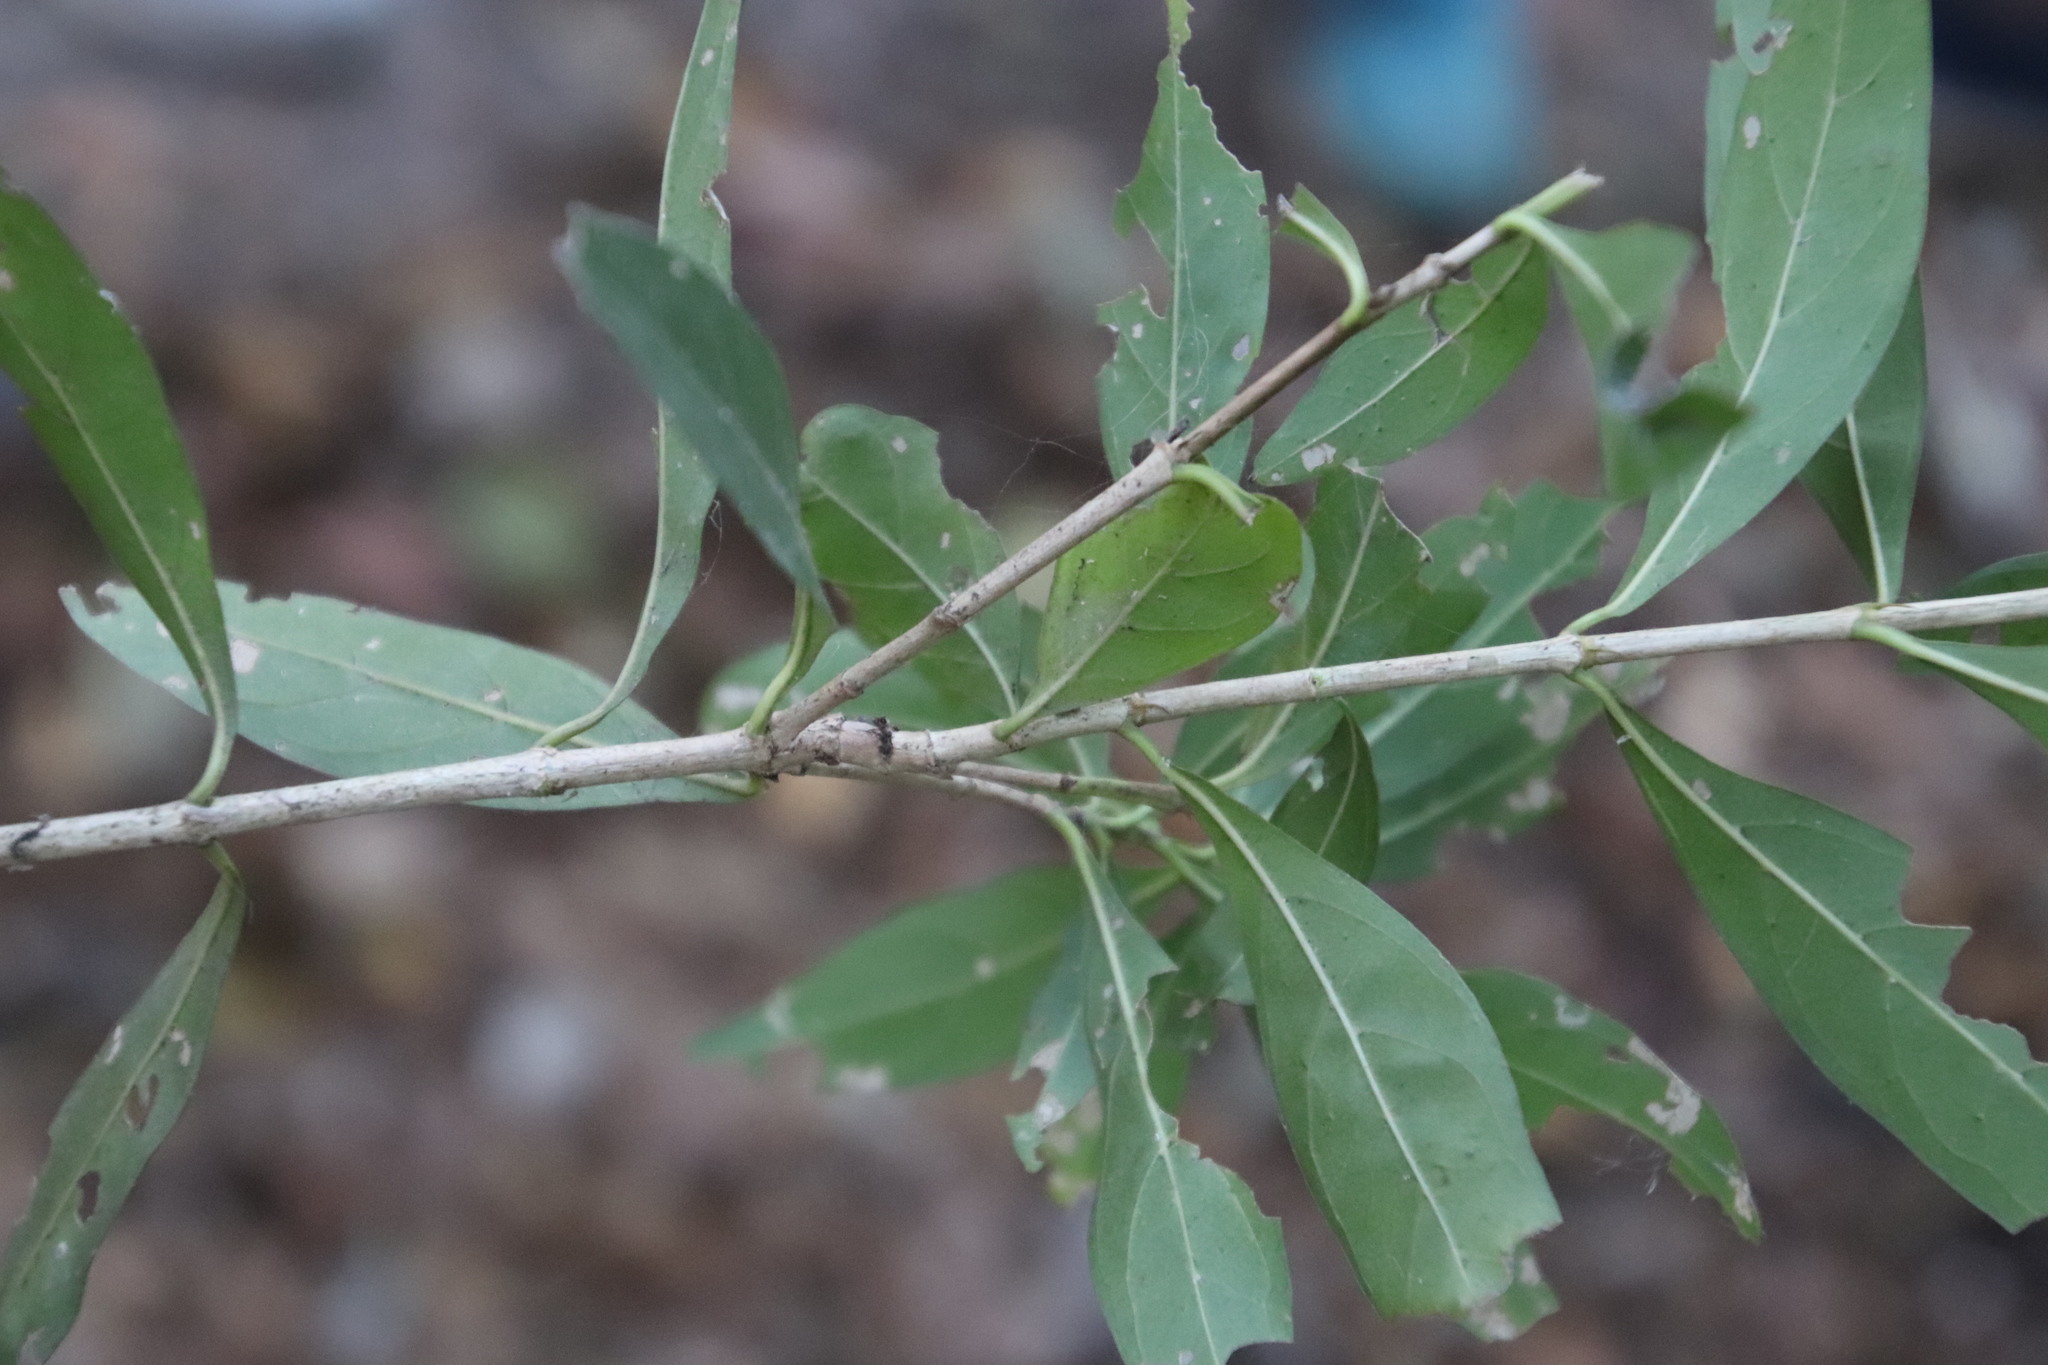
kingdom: Plantae
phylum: Tracheophyta
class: Magnoliopsida
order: Gentianales
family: Rubiaceae
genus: Pavetta
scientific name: Pavetta lanceolata
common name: Weeping brides-bush
